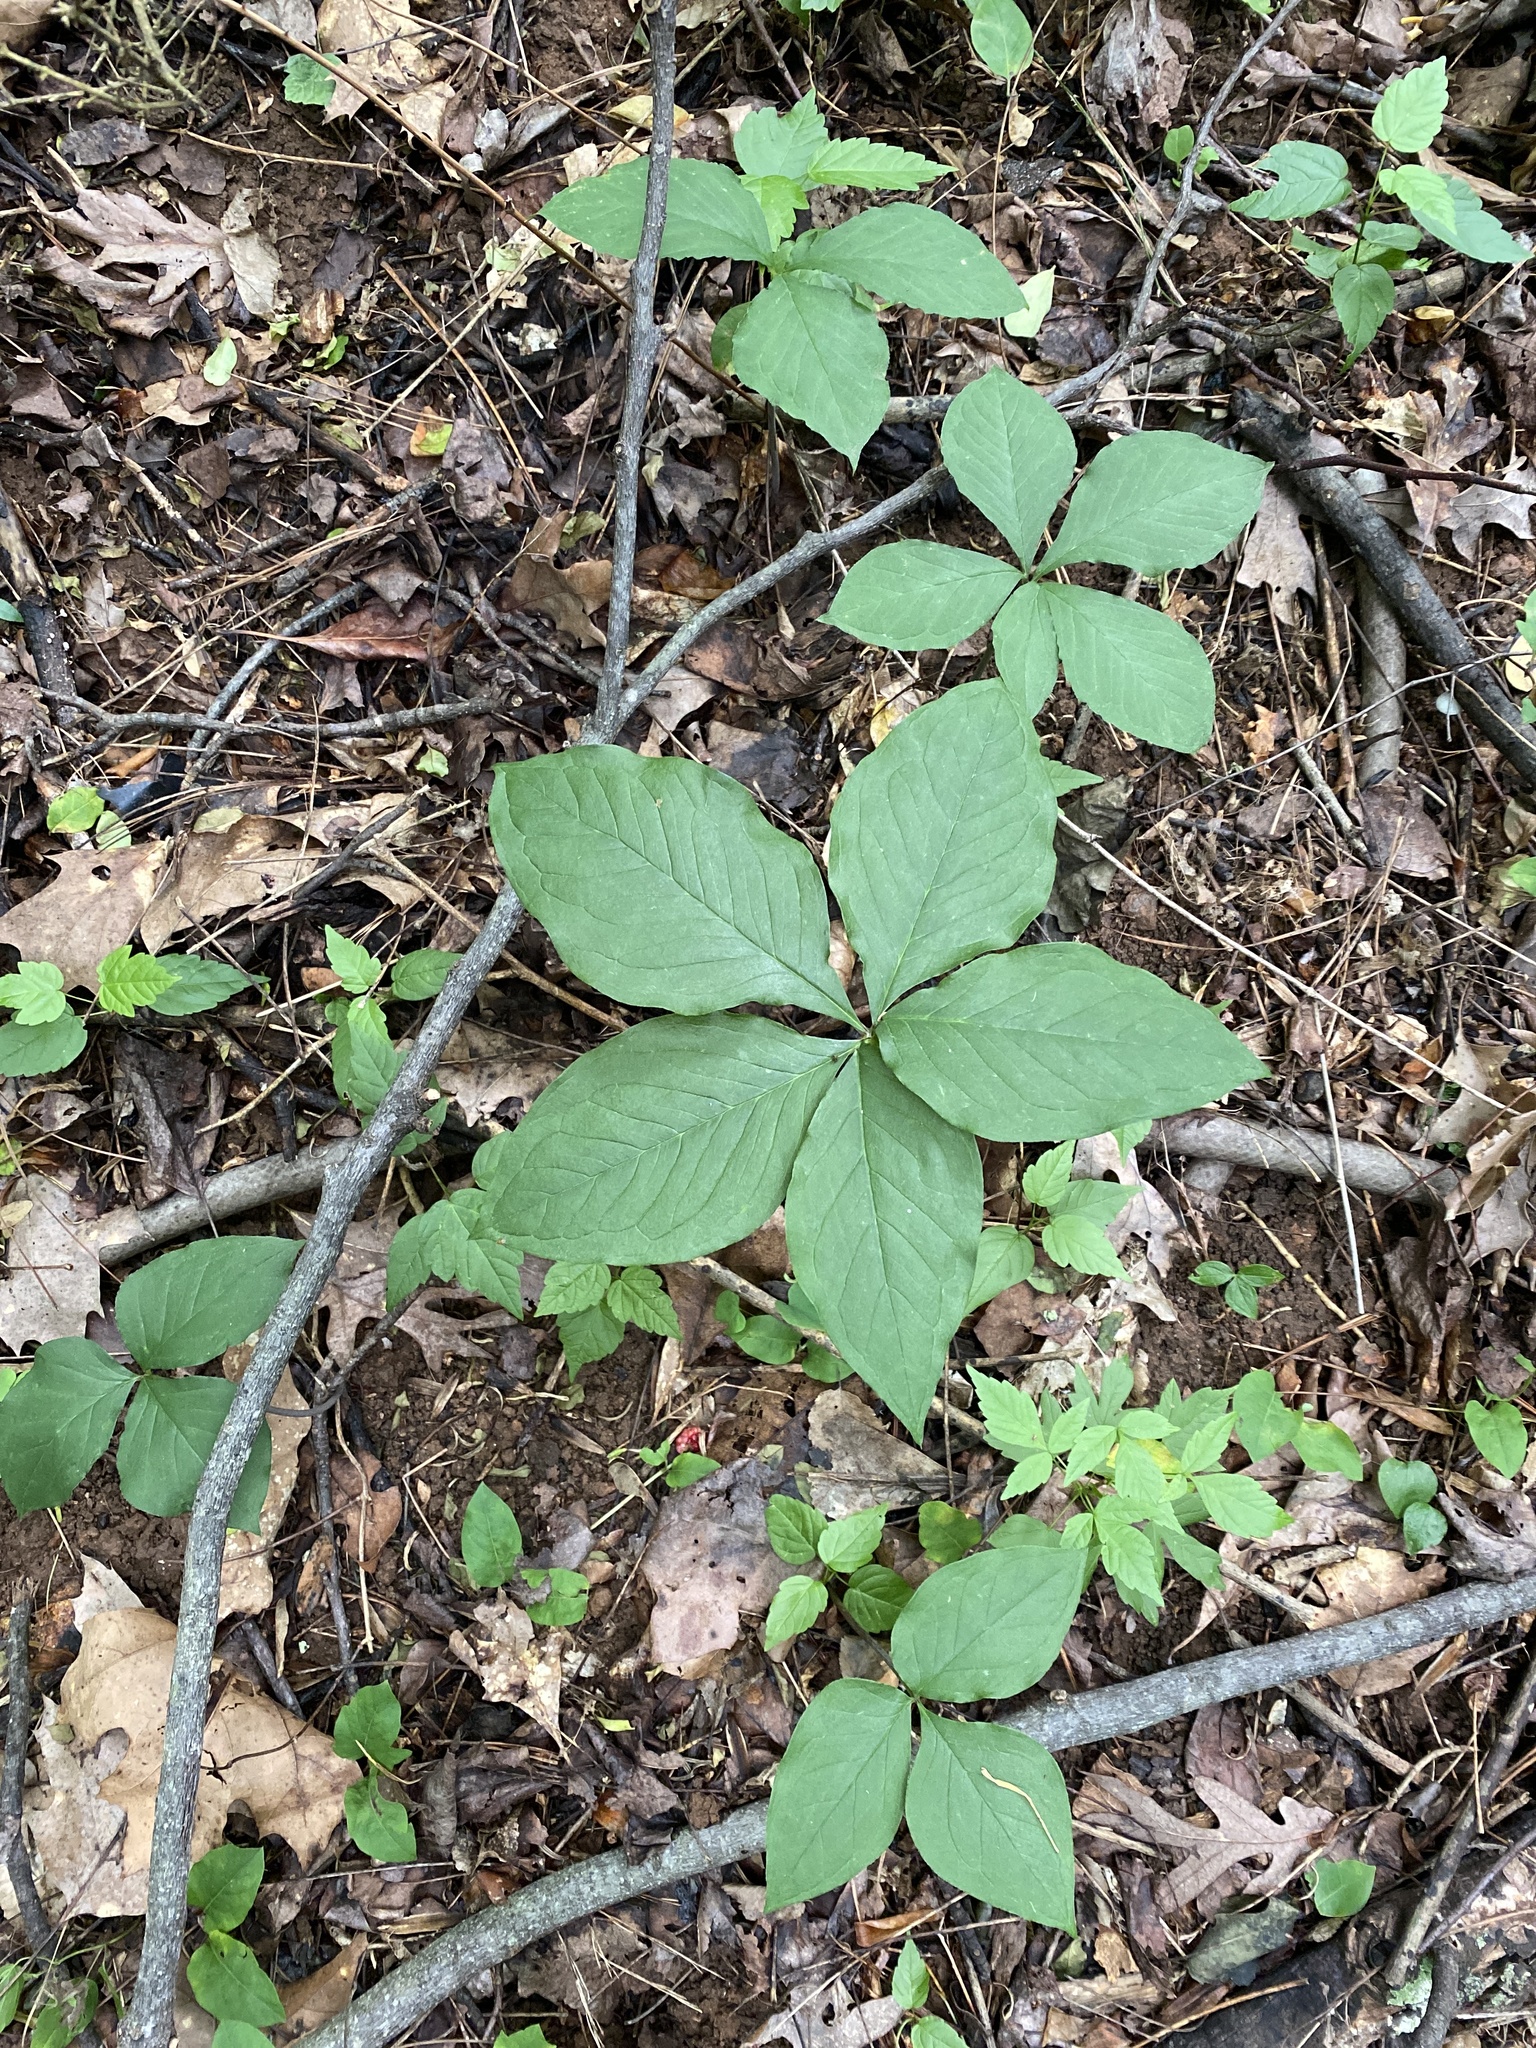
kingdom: Plantae
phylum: Tracheophyta
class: Liliopsida
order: Alismatales
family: Araceae
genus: Arisaema
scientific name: Arisaema quinatum
